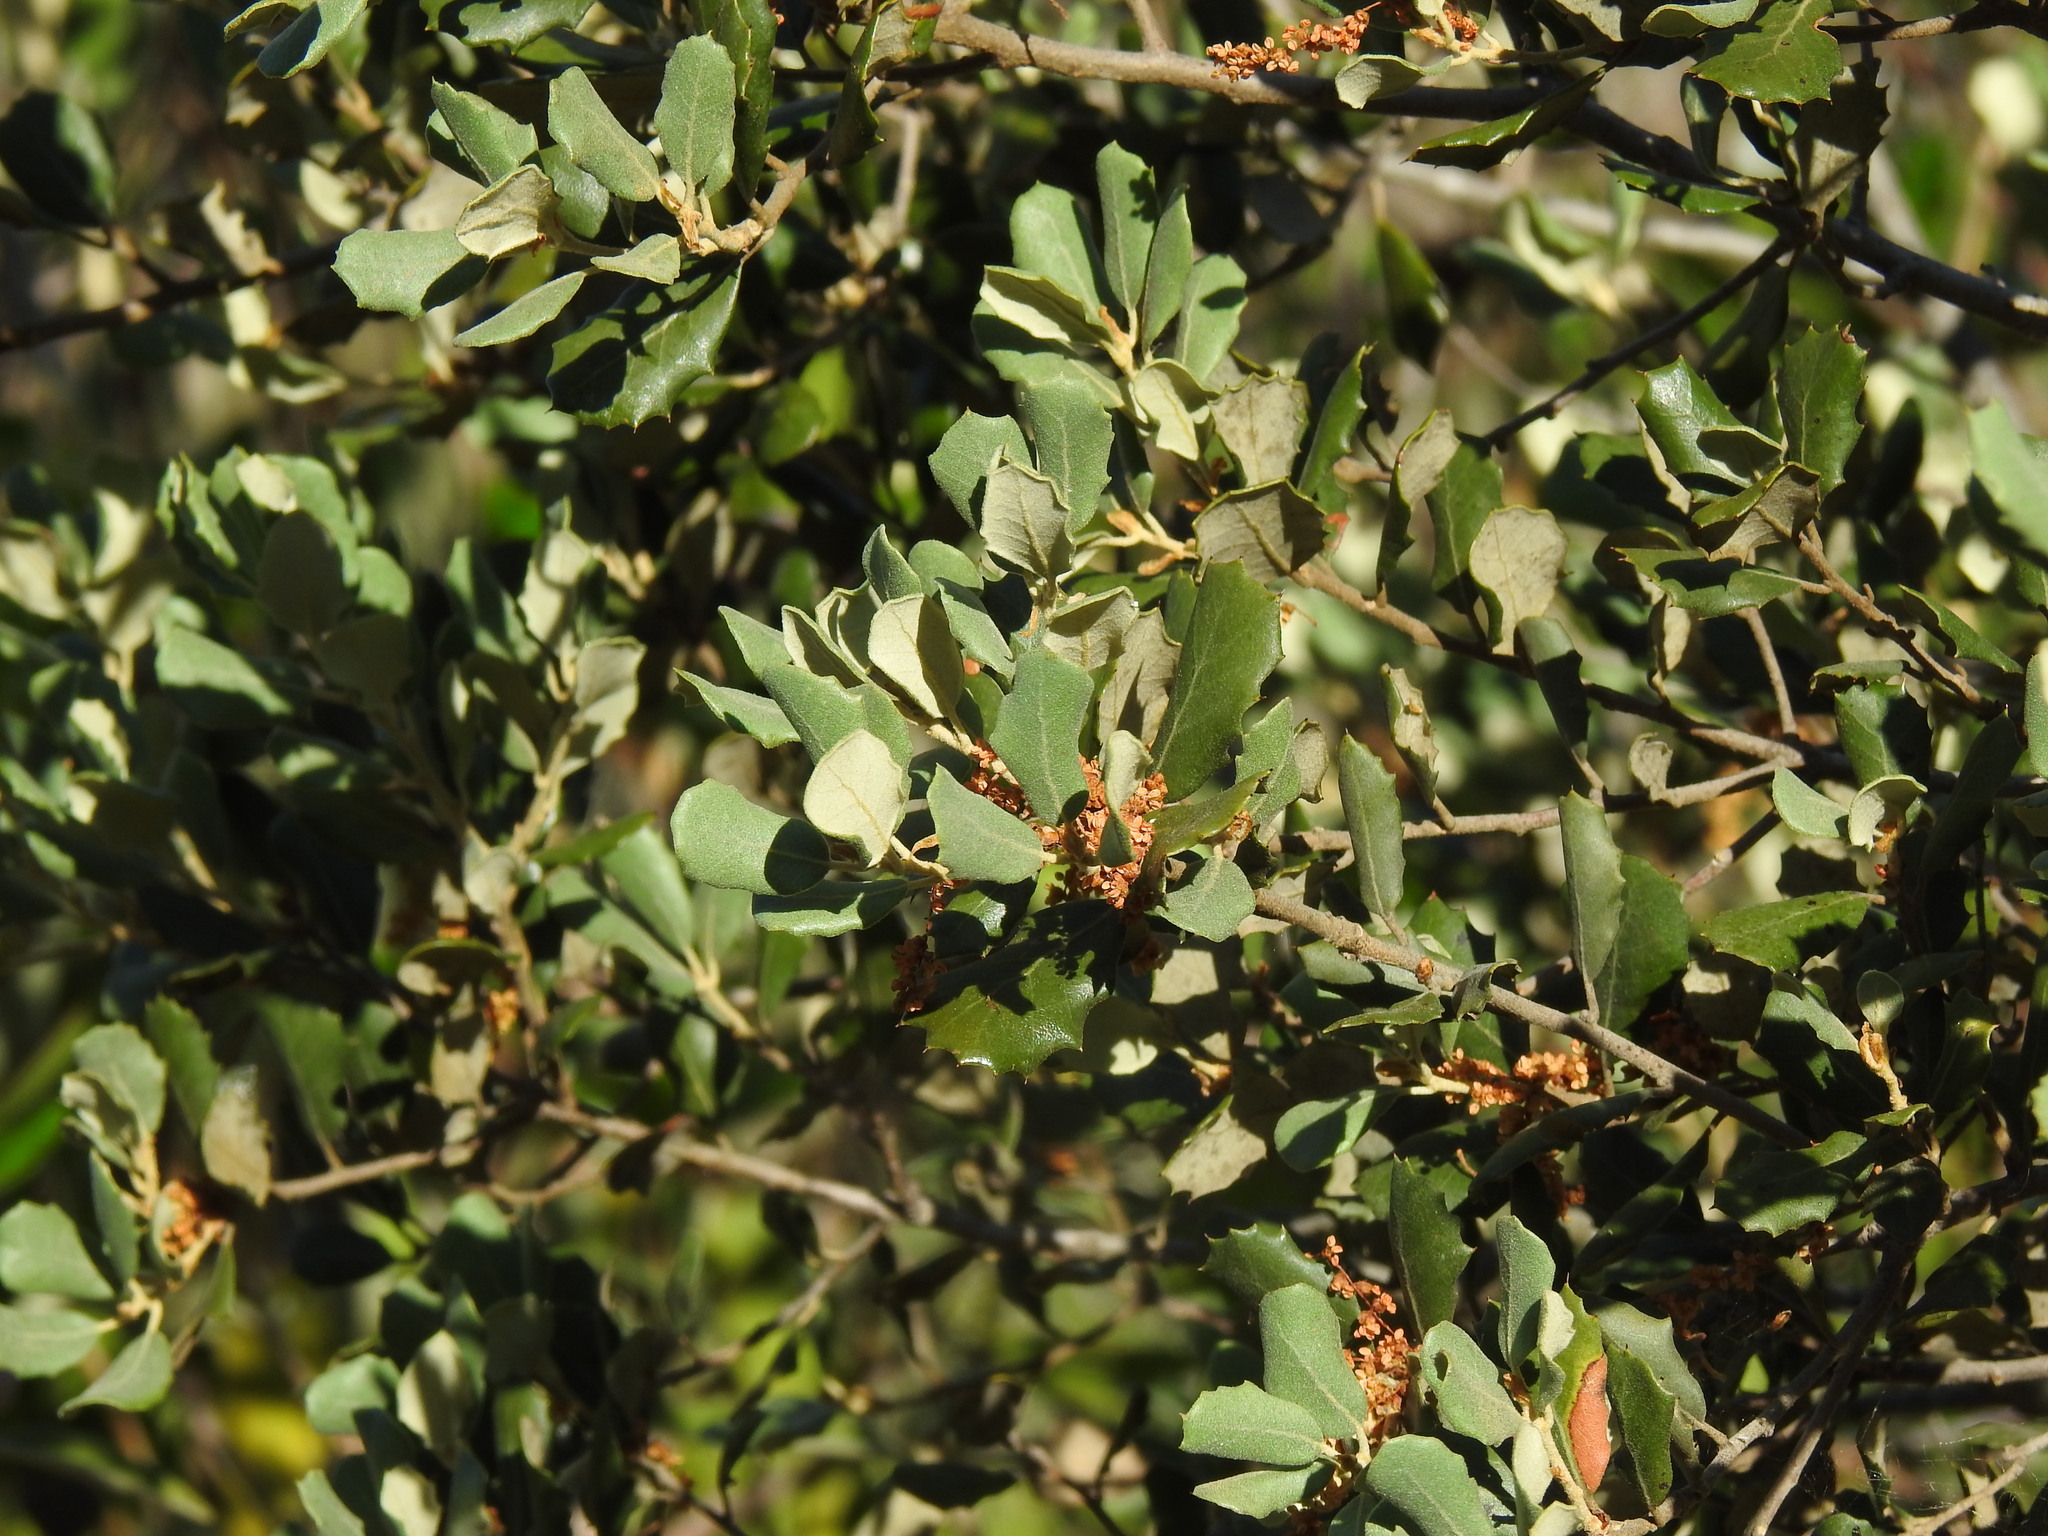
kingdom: Plantae
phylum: Tracheophyta
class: Magnoliopsida
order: Fagales
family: Fagaceae
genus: Quercus
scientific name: Quercus rotundifolia
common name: Holm oak
